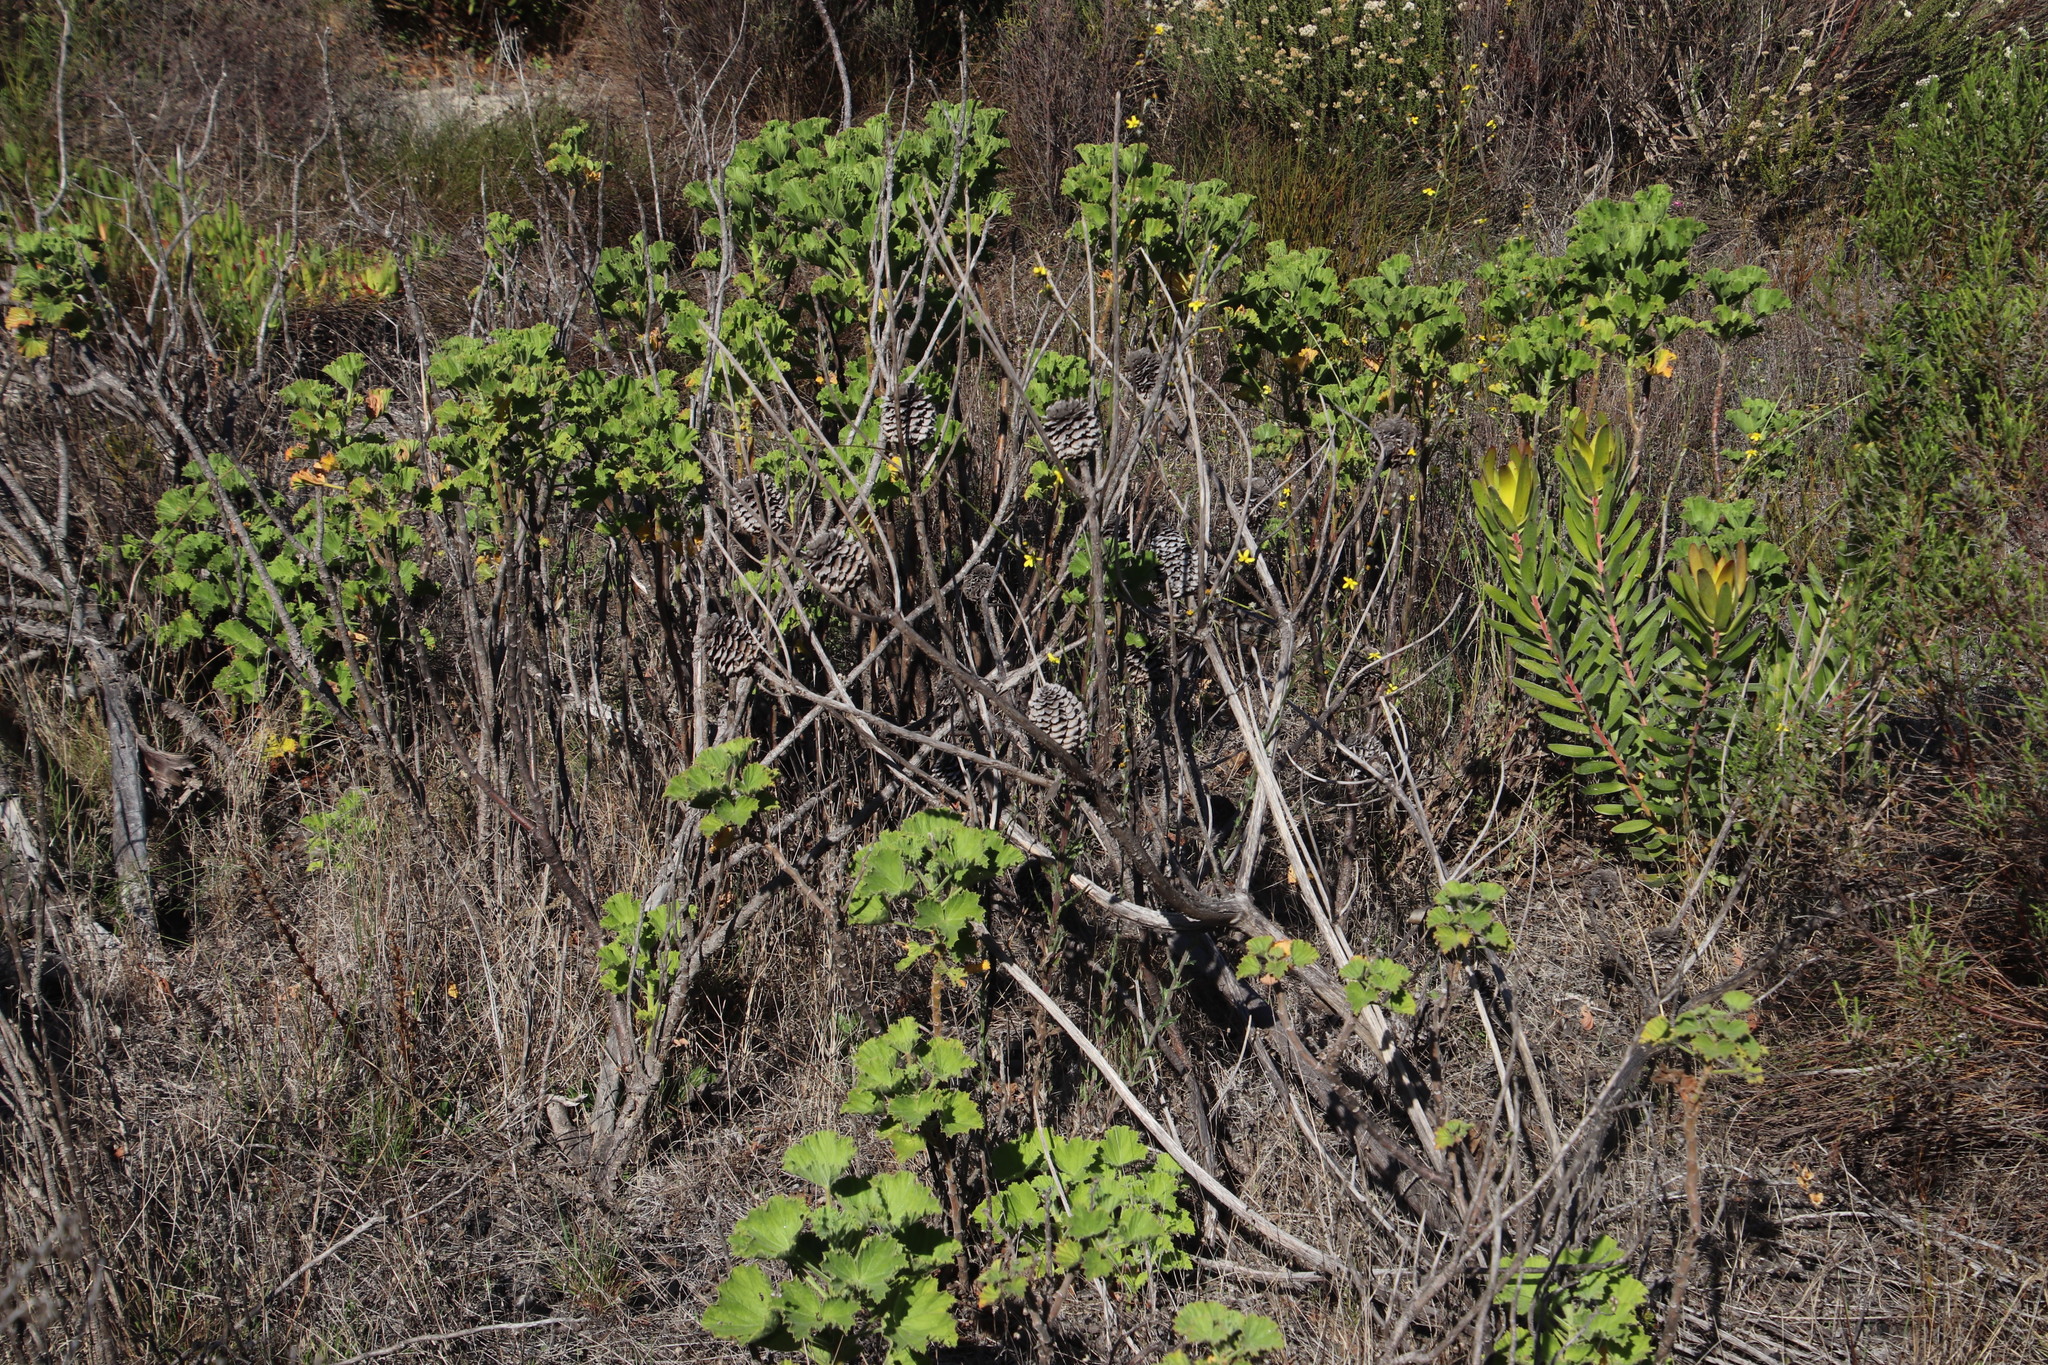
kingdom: Plantae
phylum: Tracheophyta
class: Magnoliopsida
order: Proteales
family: Proteaceae
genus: Leucadendron
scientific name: Leucadendron laureolum
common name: Golden sunshinebush
